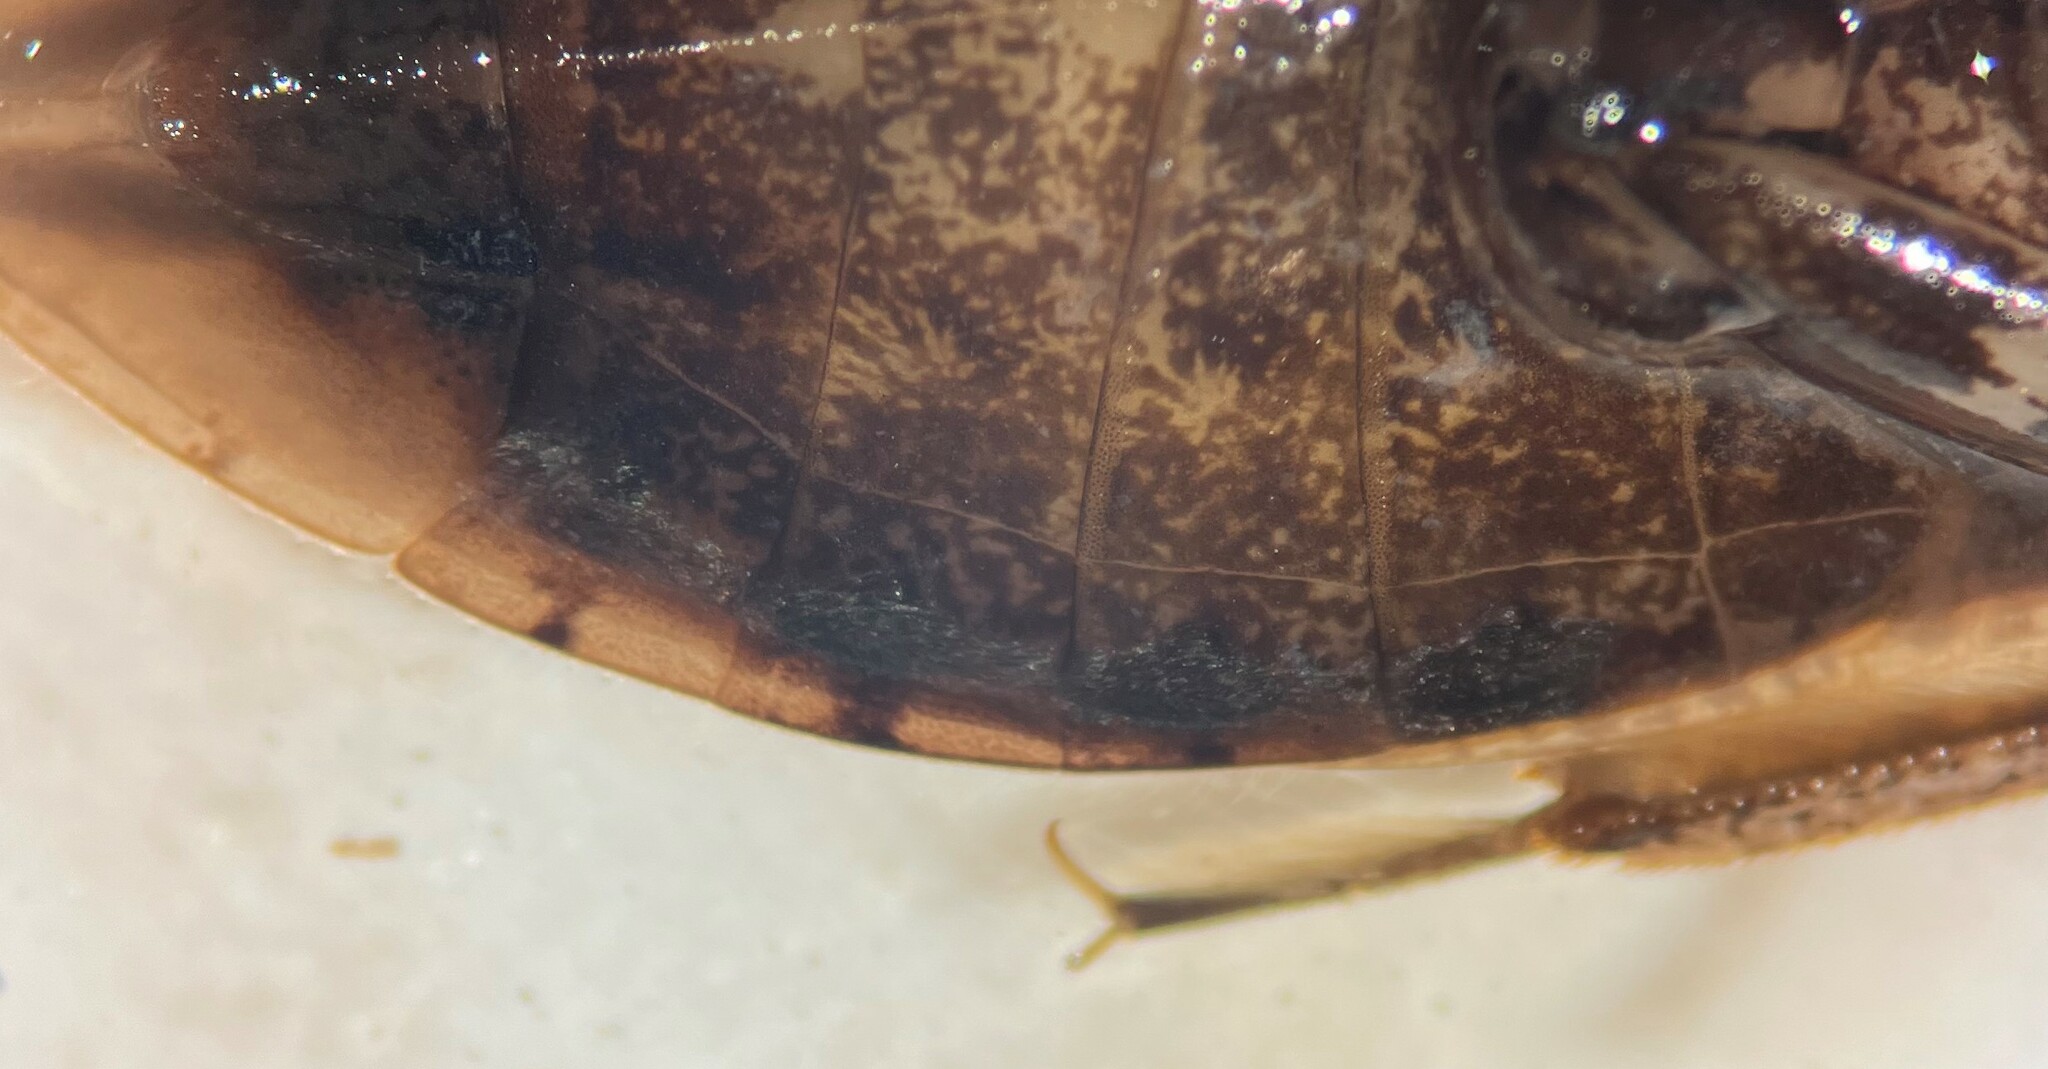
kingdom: Animalia
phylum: Arthropoda
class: Insecta
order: Hemiptera
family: Belostomatidae
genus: Belostoma
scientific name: Belostoma fusciventre
